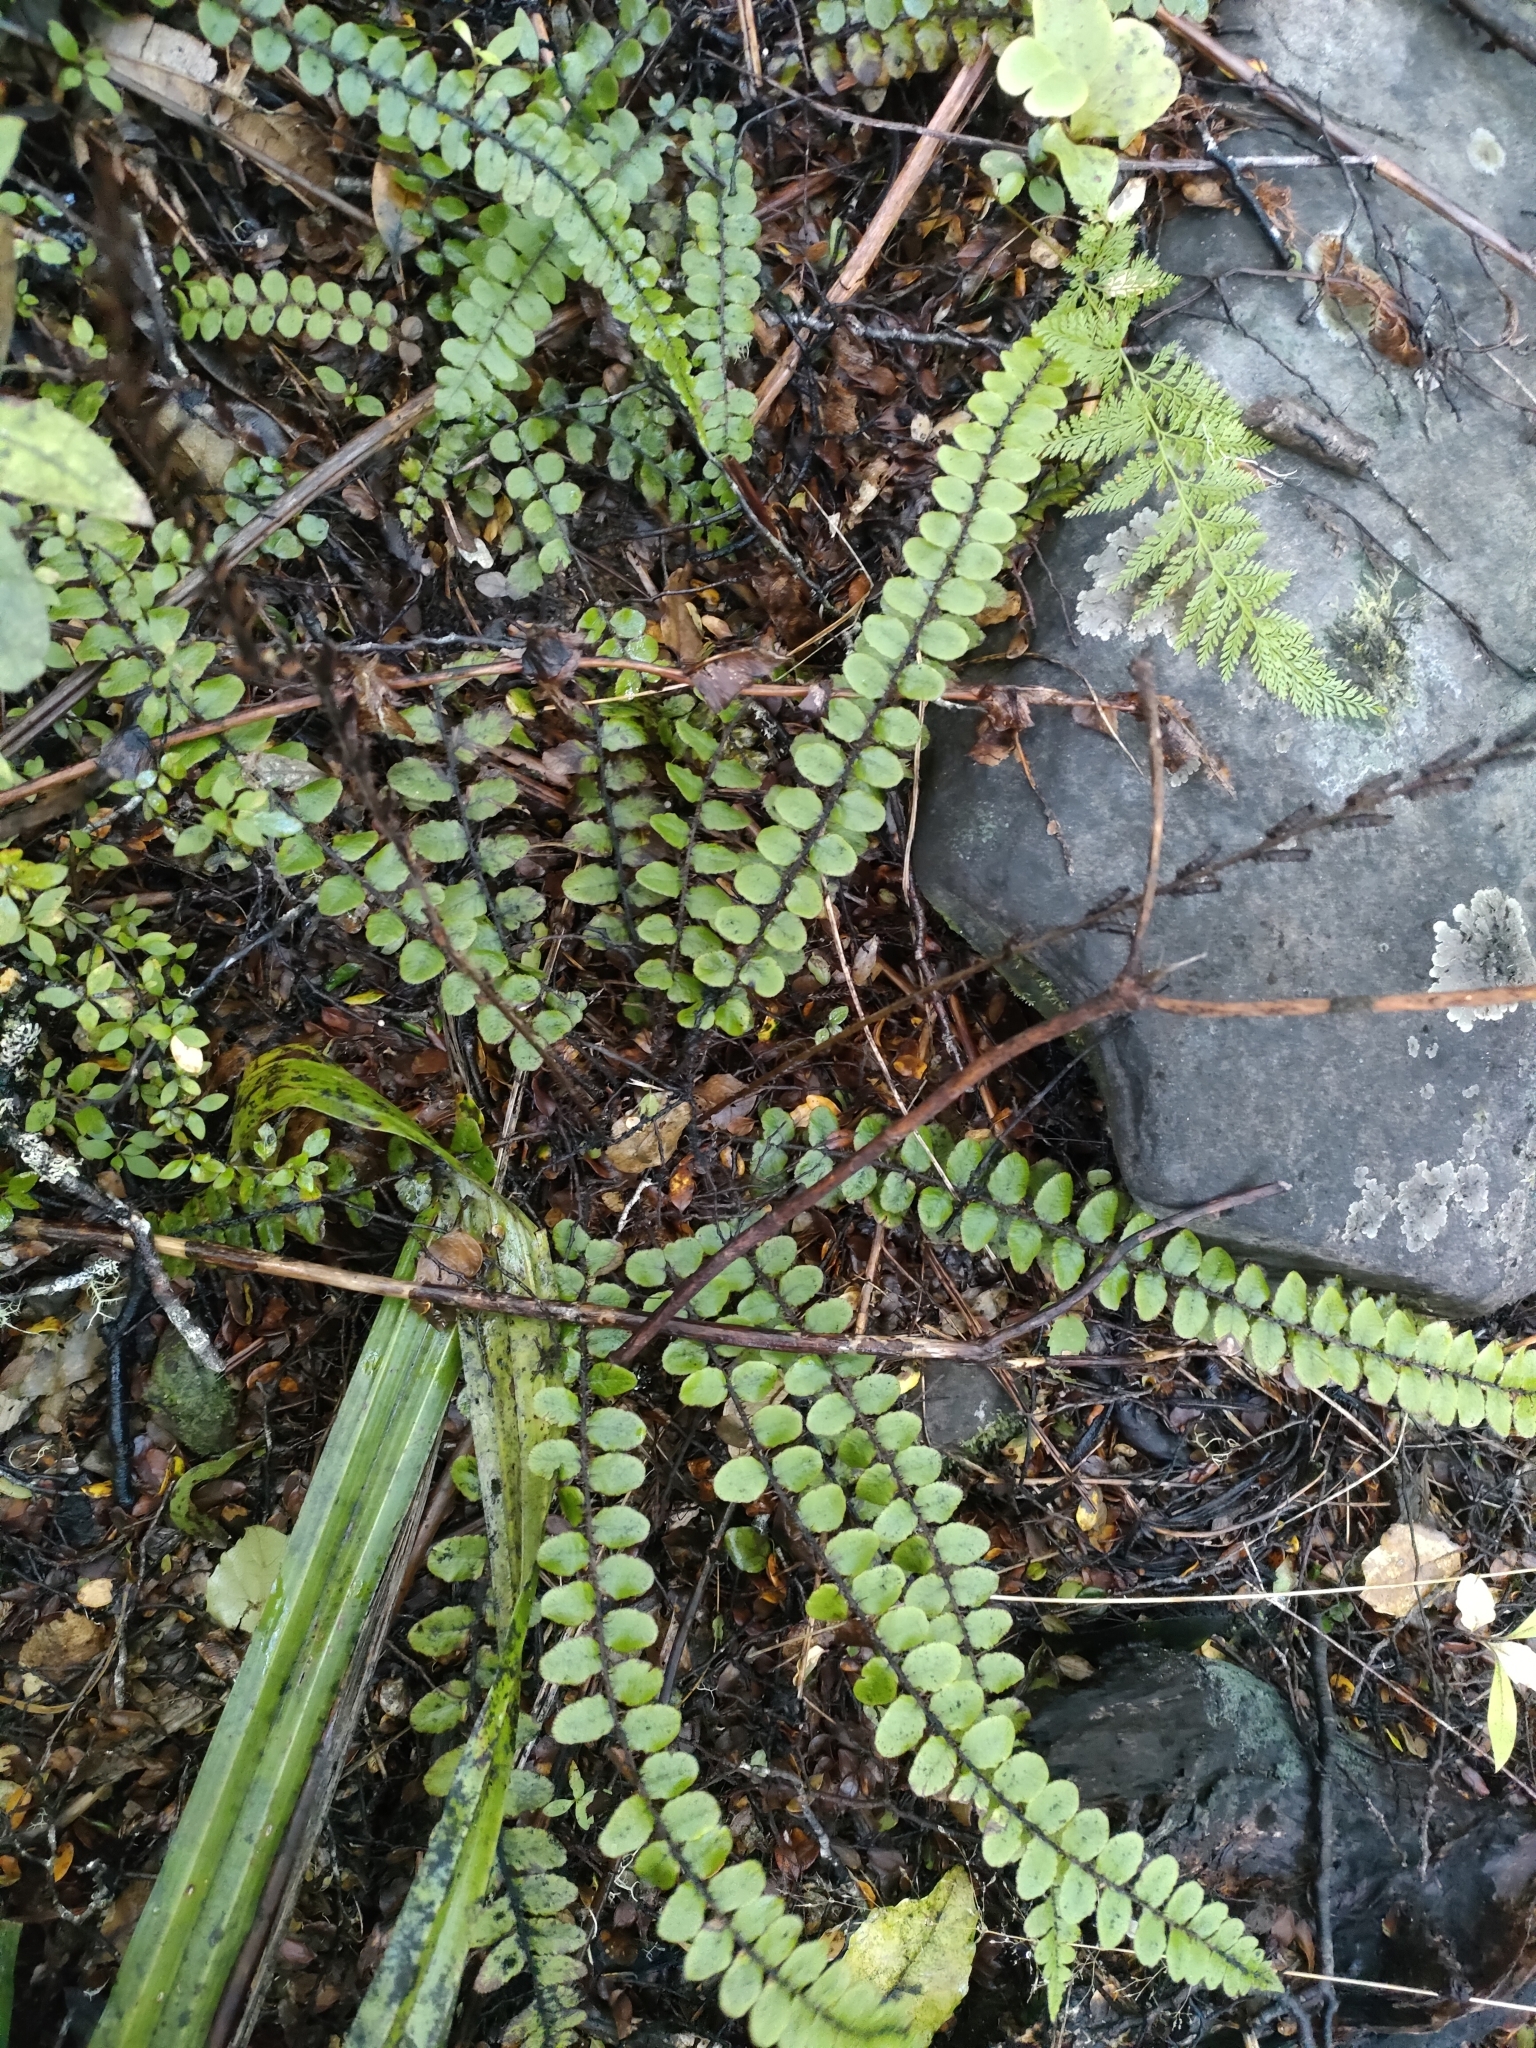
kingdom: Plantae
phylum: Tracheophyta
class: Polypodiopsida
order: Polypodiales
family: Blechnaceae
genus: Cranfillia
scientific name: Cranfillia fluviatilis
